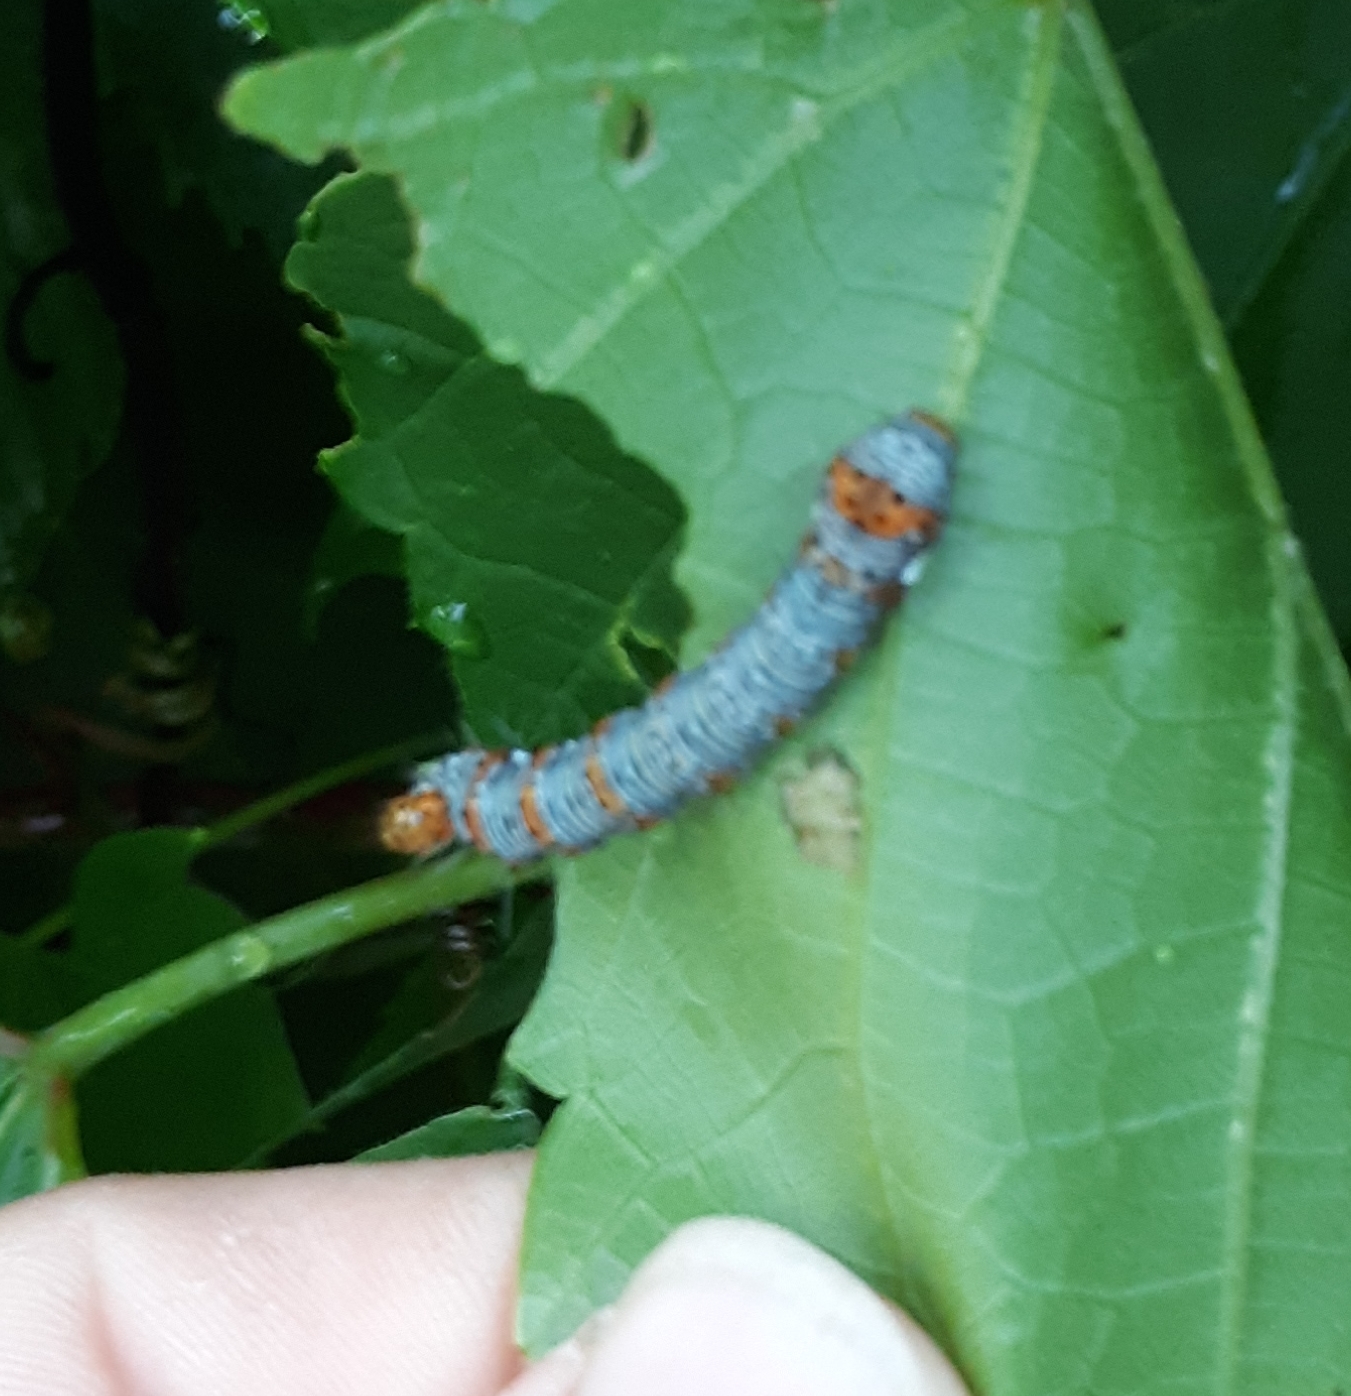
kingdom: Animalia
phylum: Arthropoda
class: Insecta
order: Lepidoptera
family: Noctuidae
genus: Alypia
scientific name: Alypia octomaculata
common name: Eight-spotted forester
